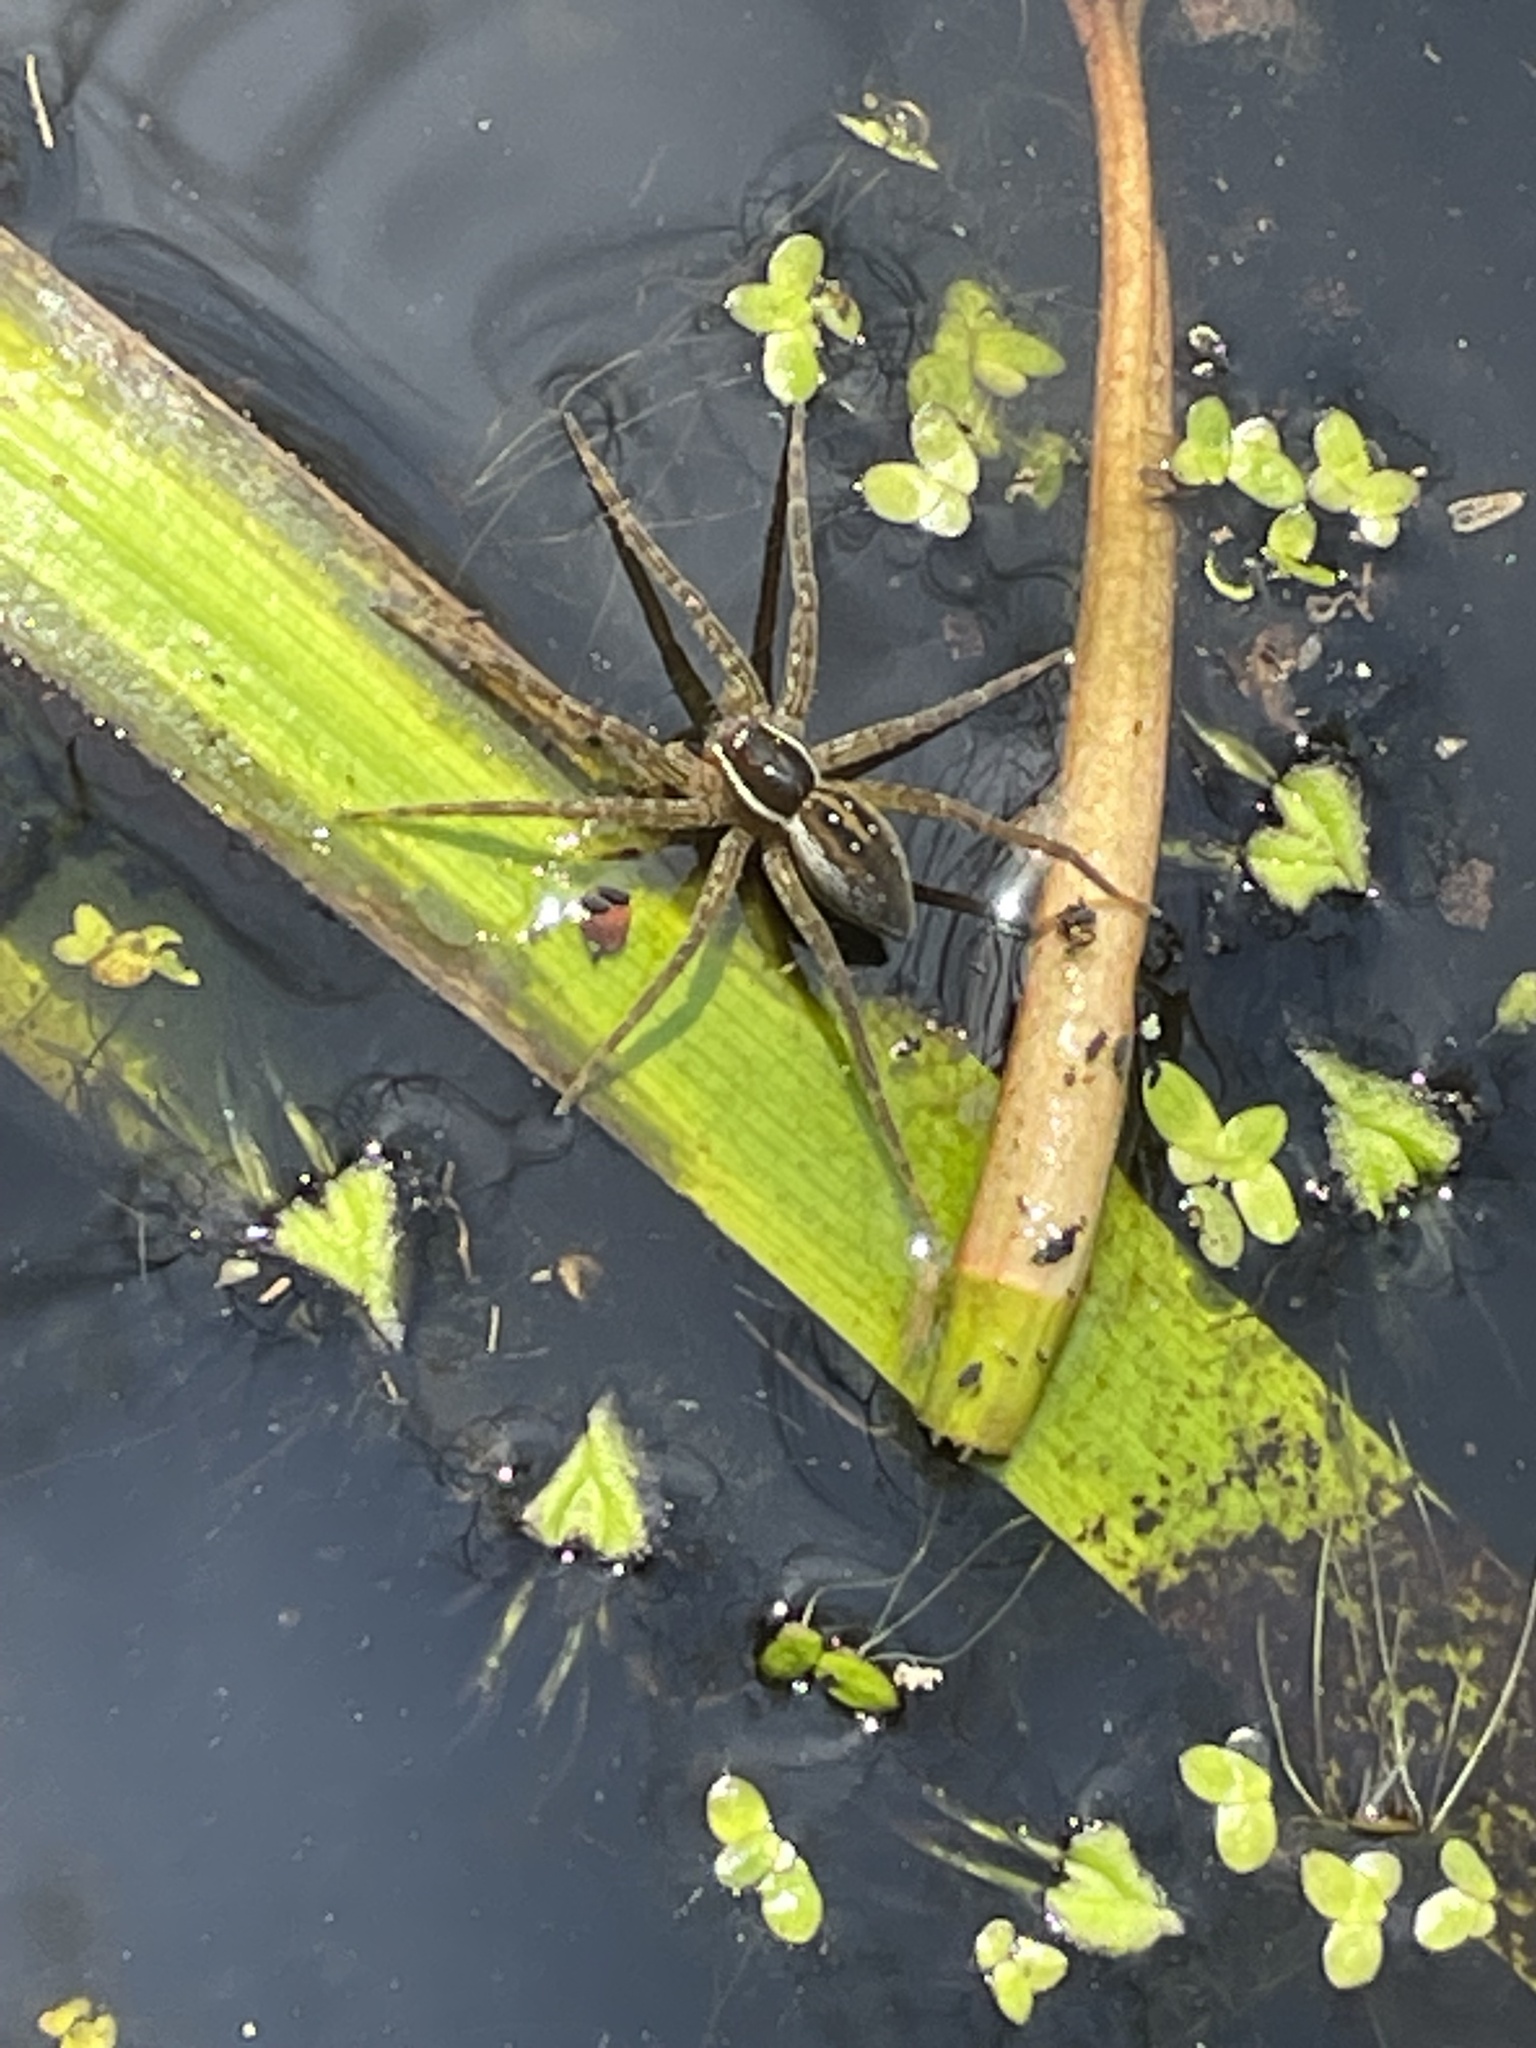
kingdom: Animalia
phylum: Arthropoda
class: Arachnida
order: Araneae
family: Pisauridae
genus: Dolomedes
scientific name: Dolomedes triton
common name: Six-spotted fishing spider
